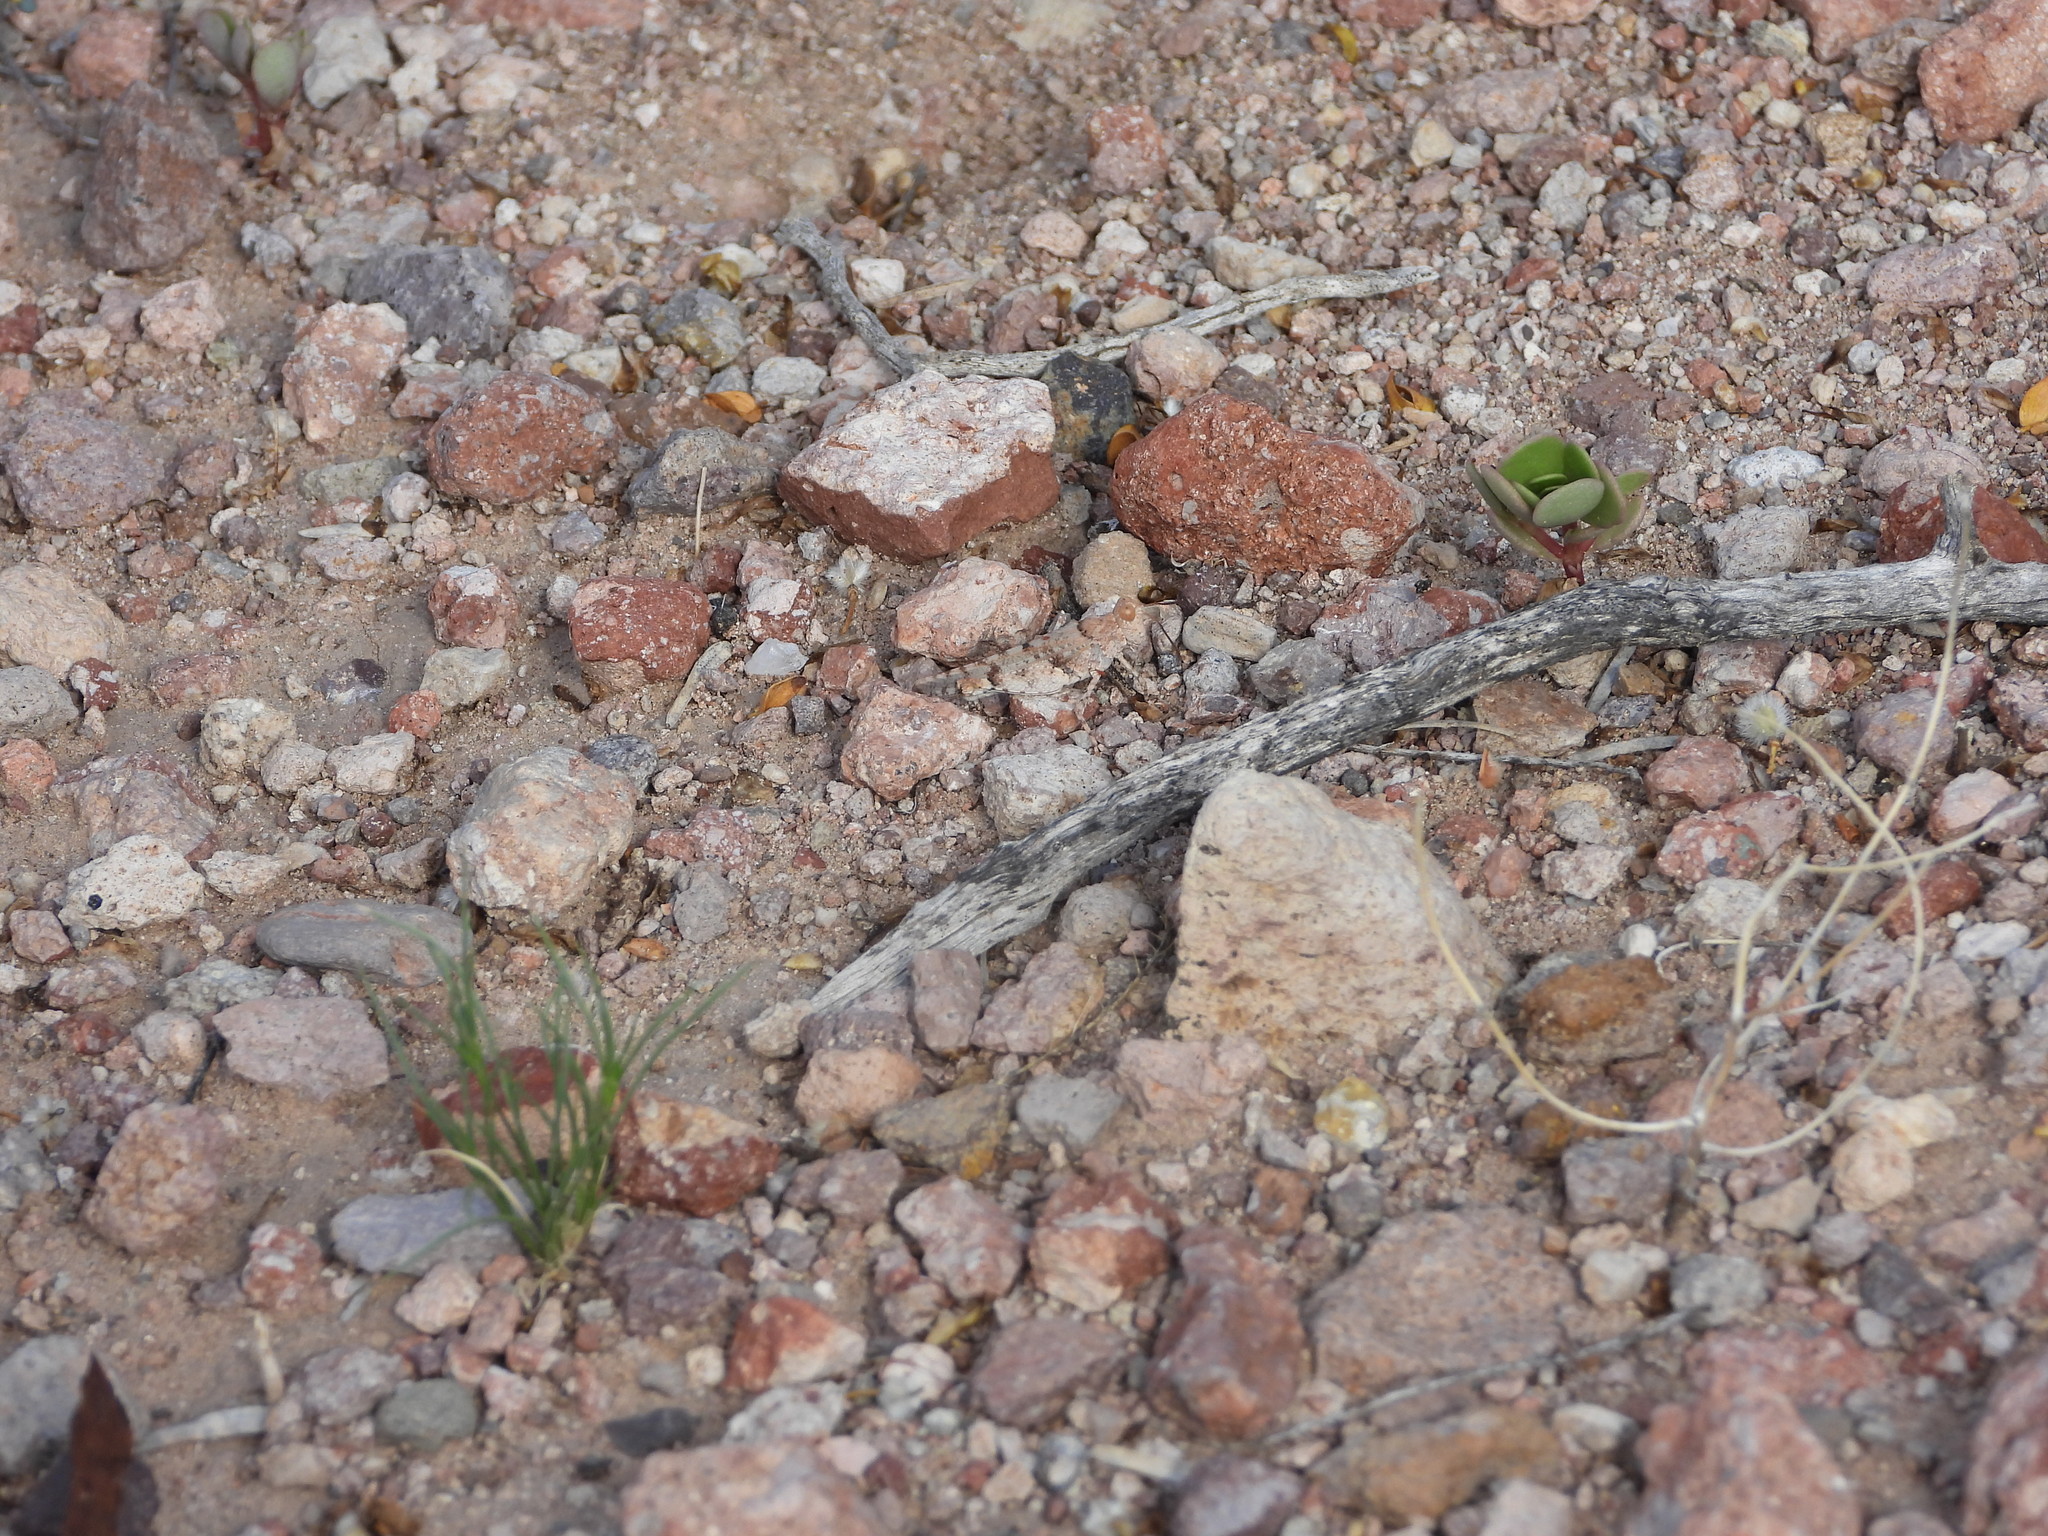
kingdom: Animalia
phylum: Arthropoda
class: Insecta
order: Orthoptera
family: Acrididae
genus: Cibolacris
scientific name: Cibolacris parviceps
